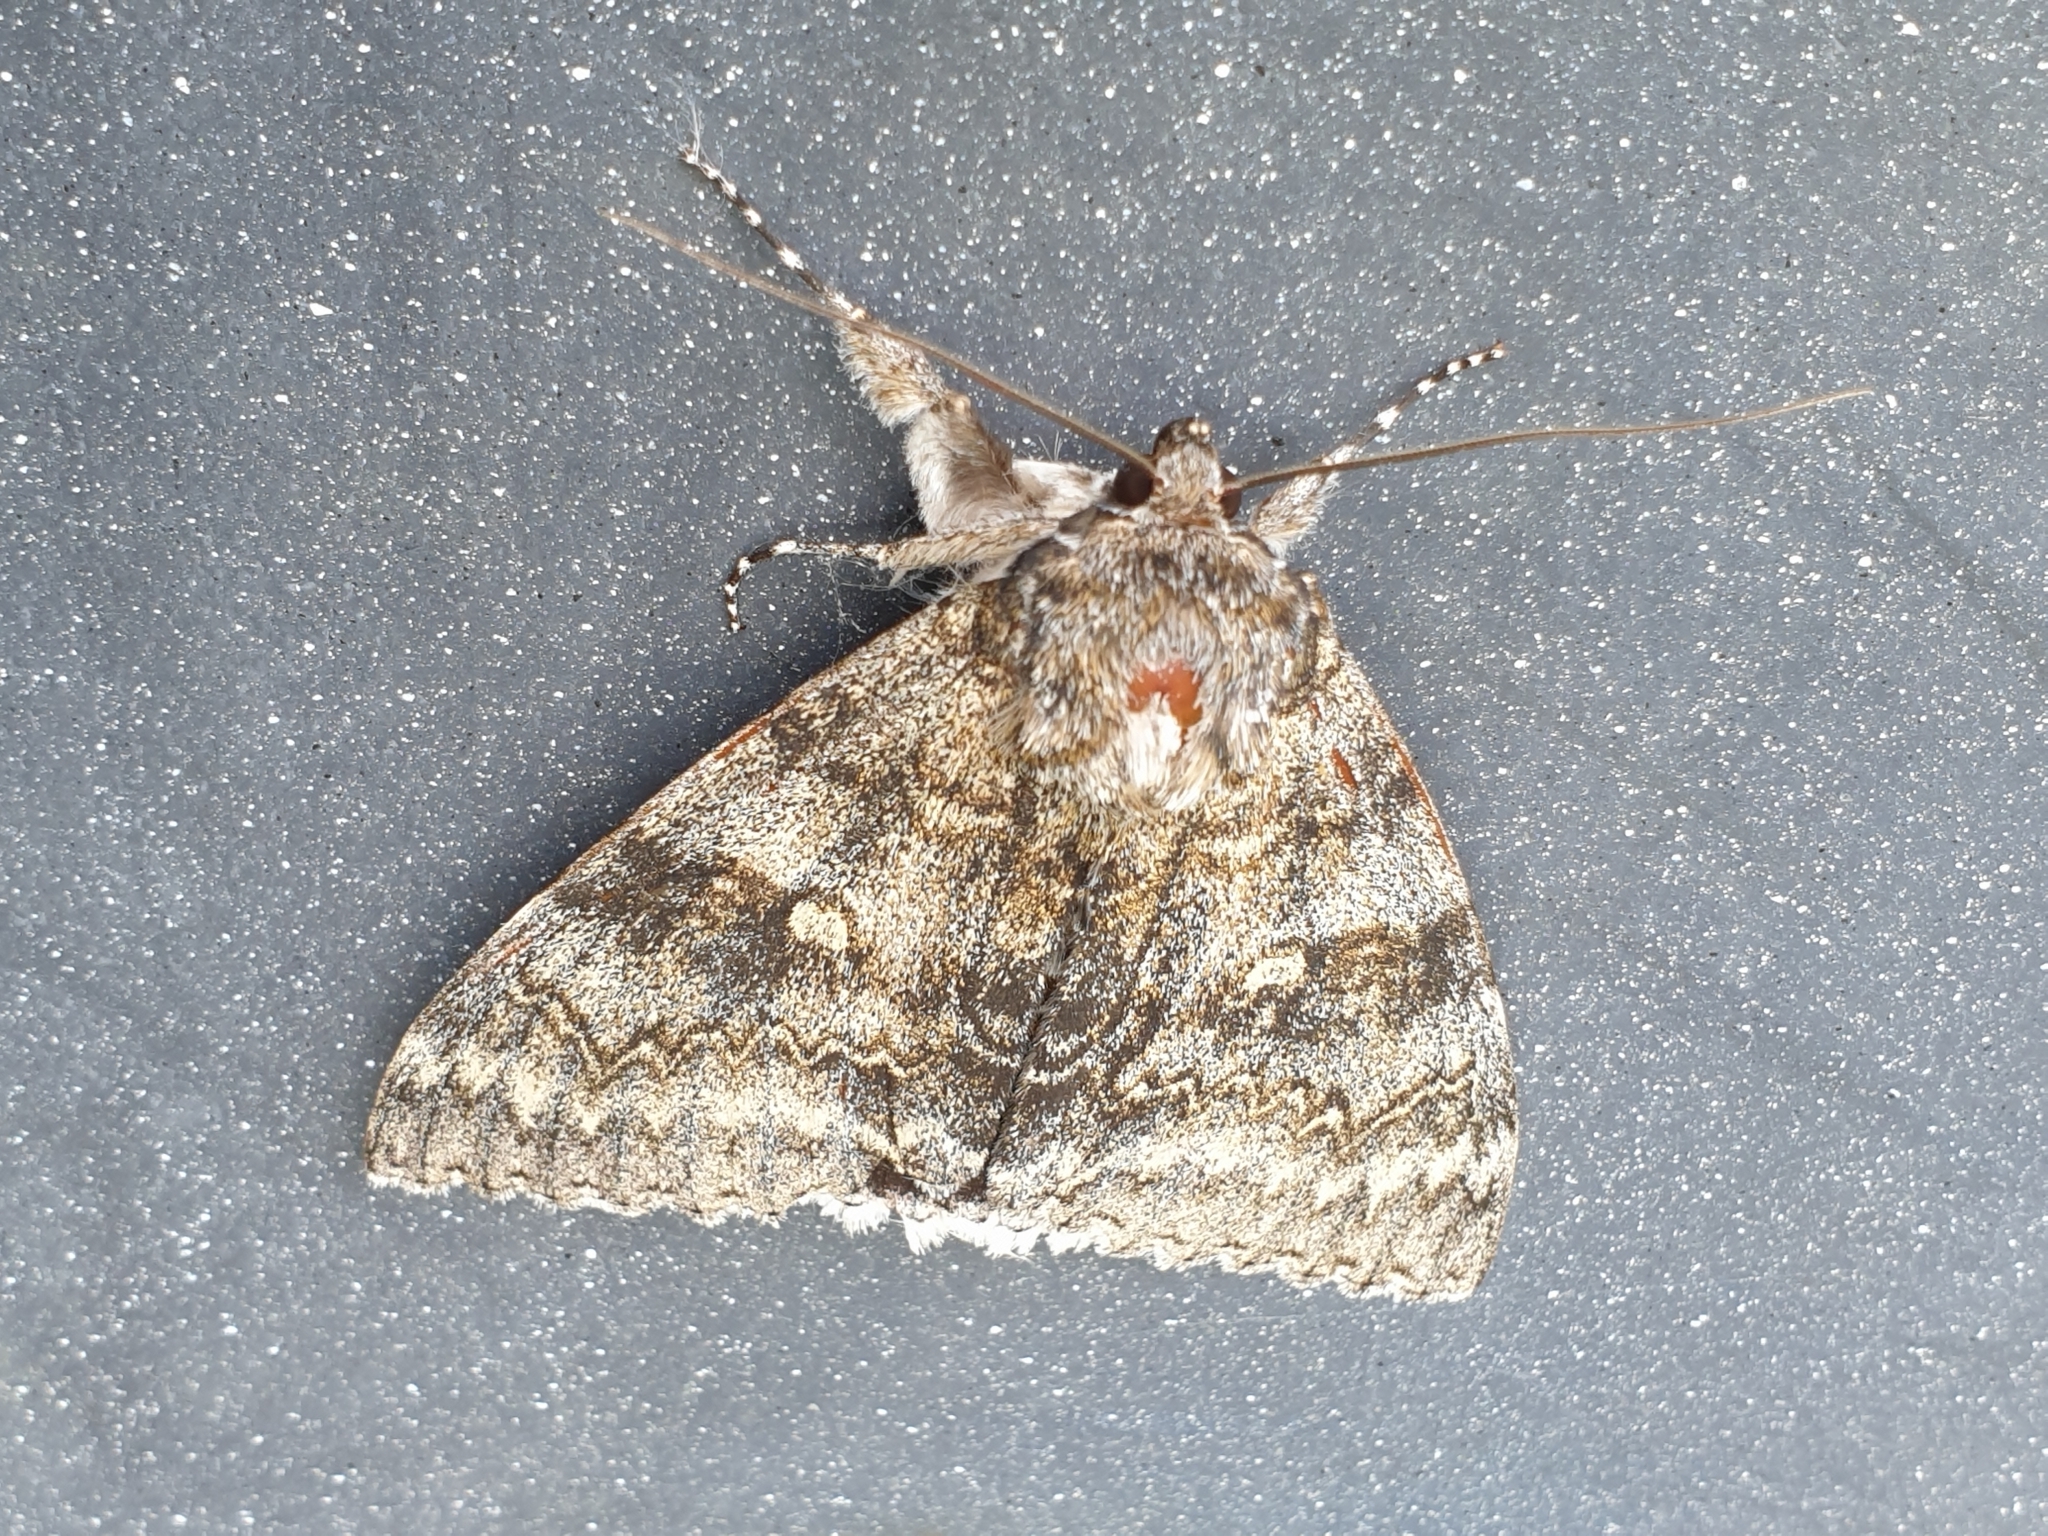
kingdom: Animalia
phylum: Arthropoda
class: Insecta
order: Lepidoptera
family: Erebidae
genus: Catocala
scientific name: Catocala fraxini
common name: Clifden nonpareil
